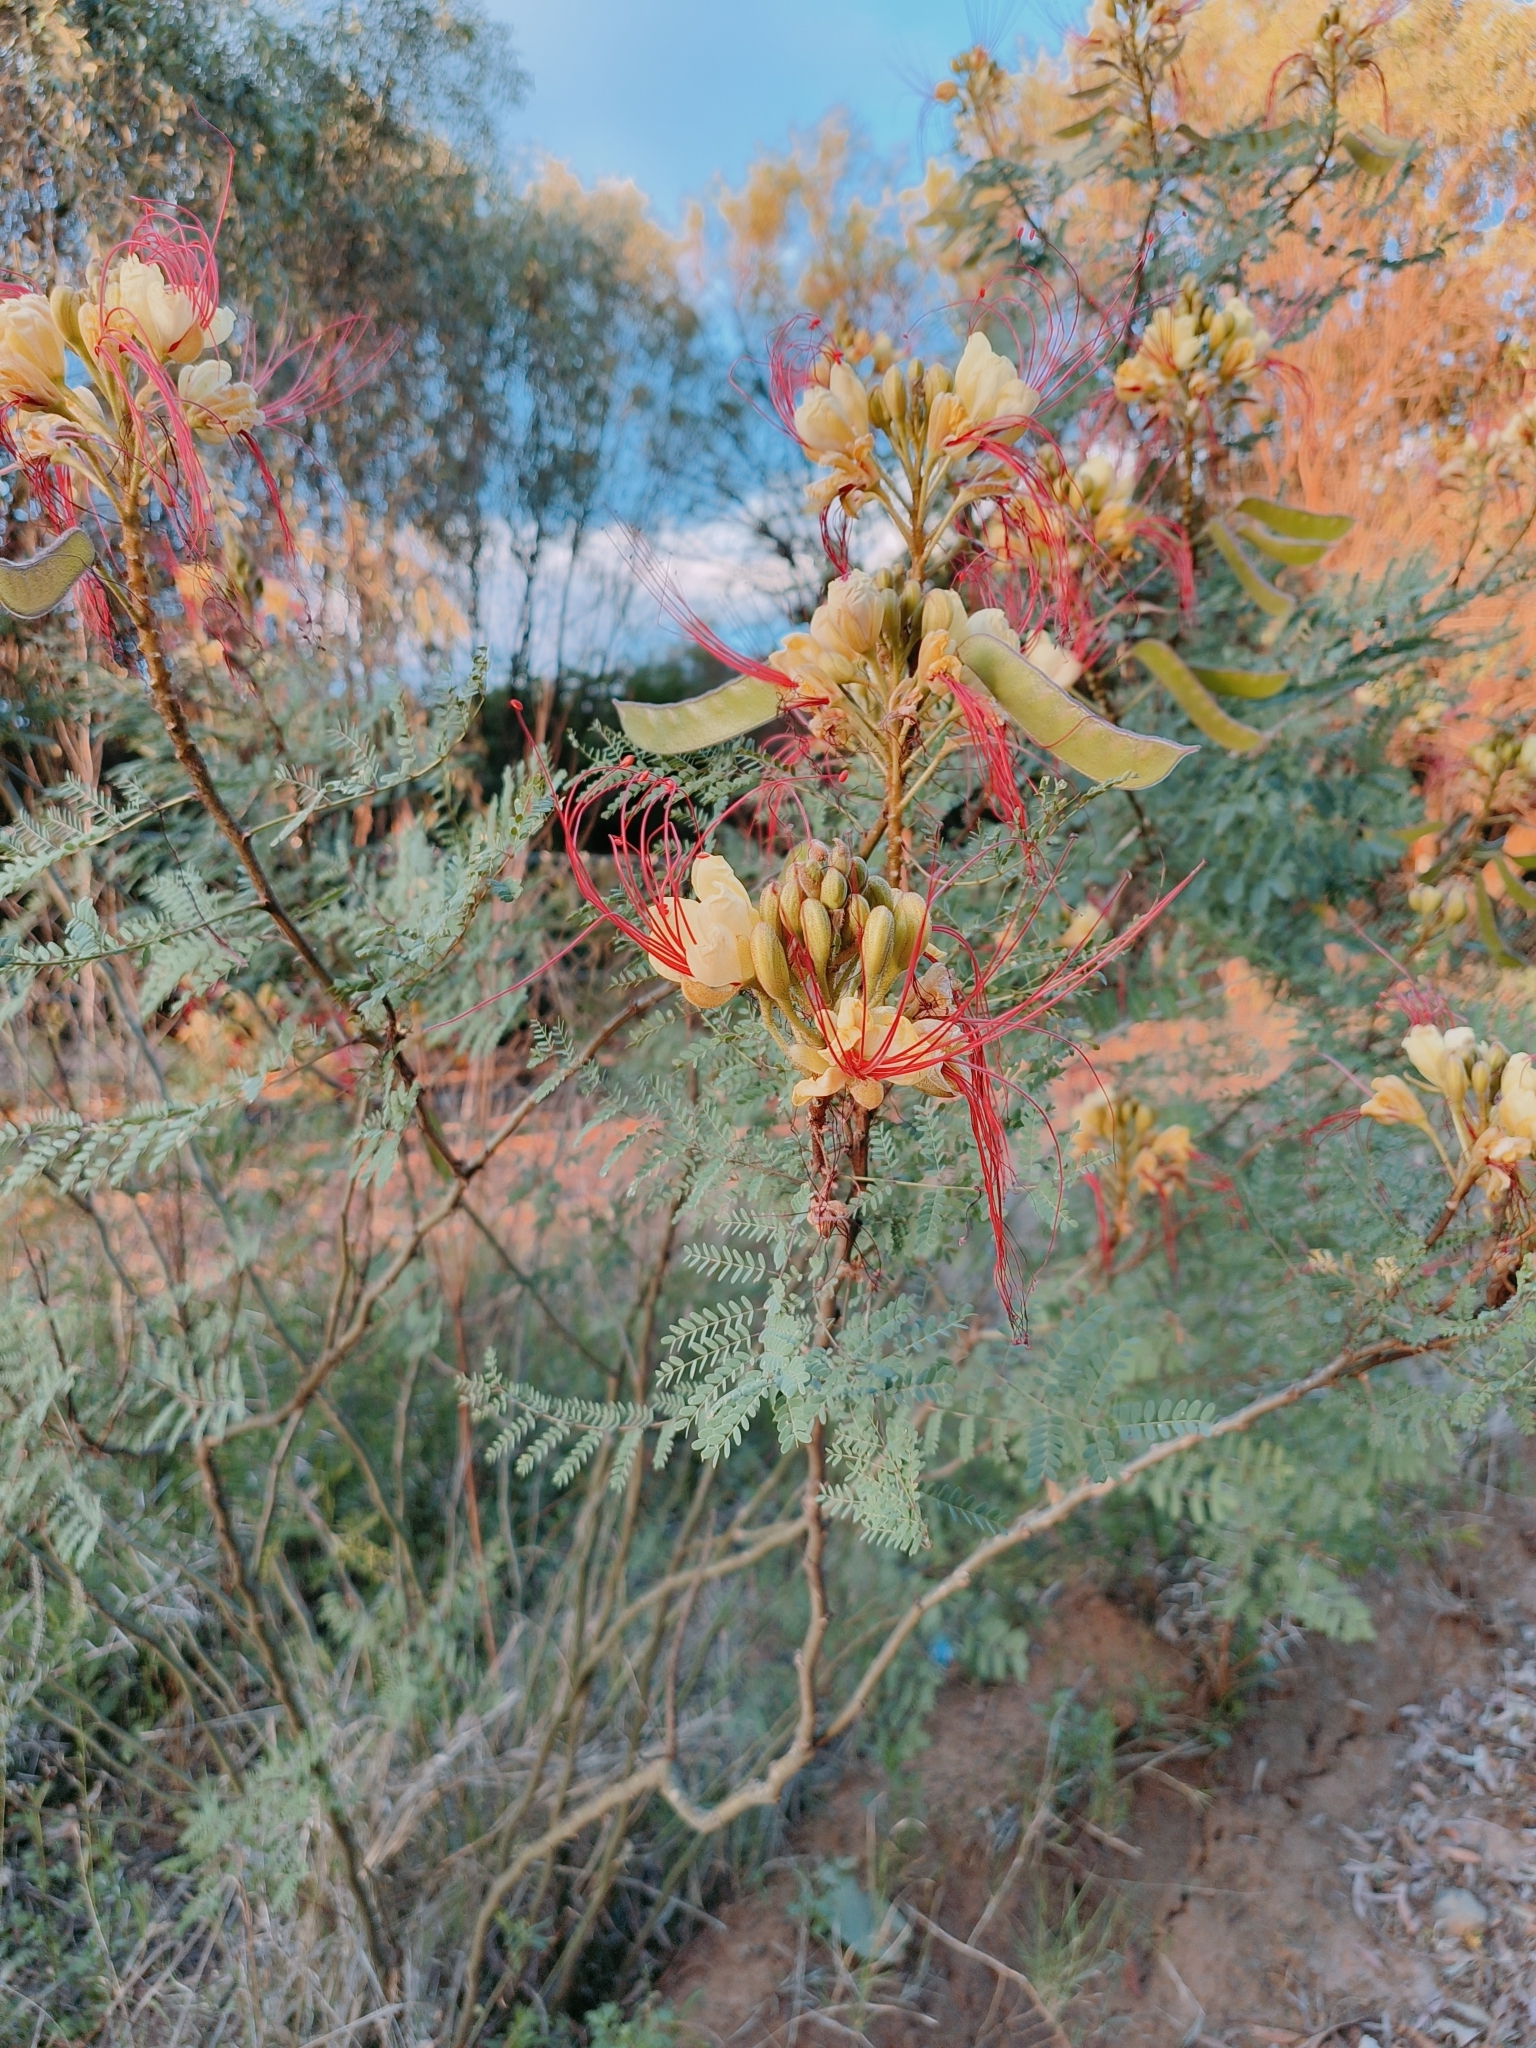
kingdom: Plantae
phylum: Tracheophyta
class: Magnoliopsida
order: Fabales
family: Fabaceae
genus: Erythrostemon
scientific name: Erythrostemon gilliesii
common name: Bird-of-paradise shrub
